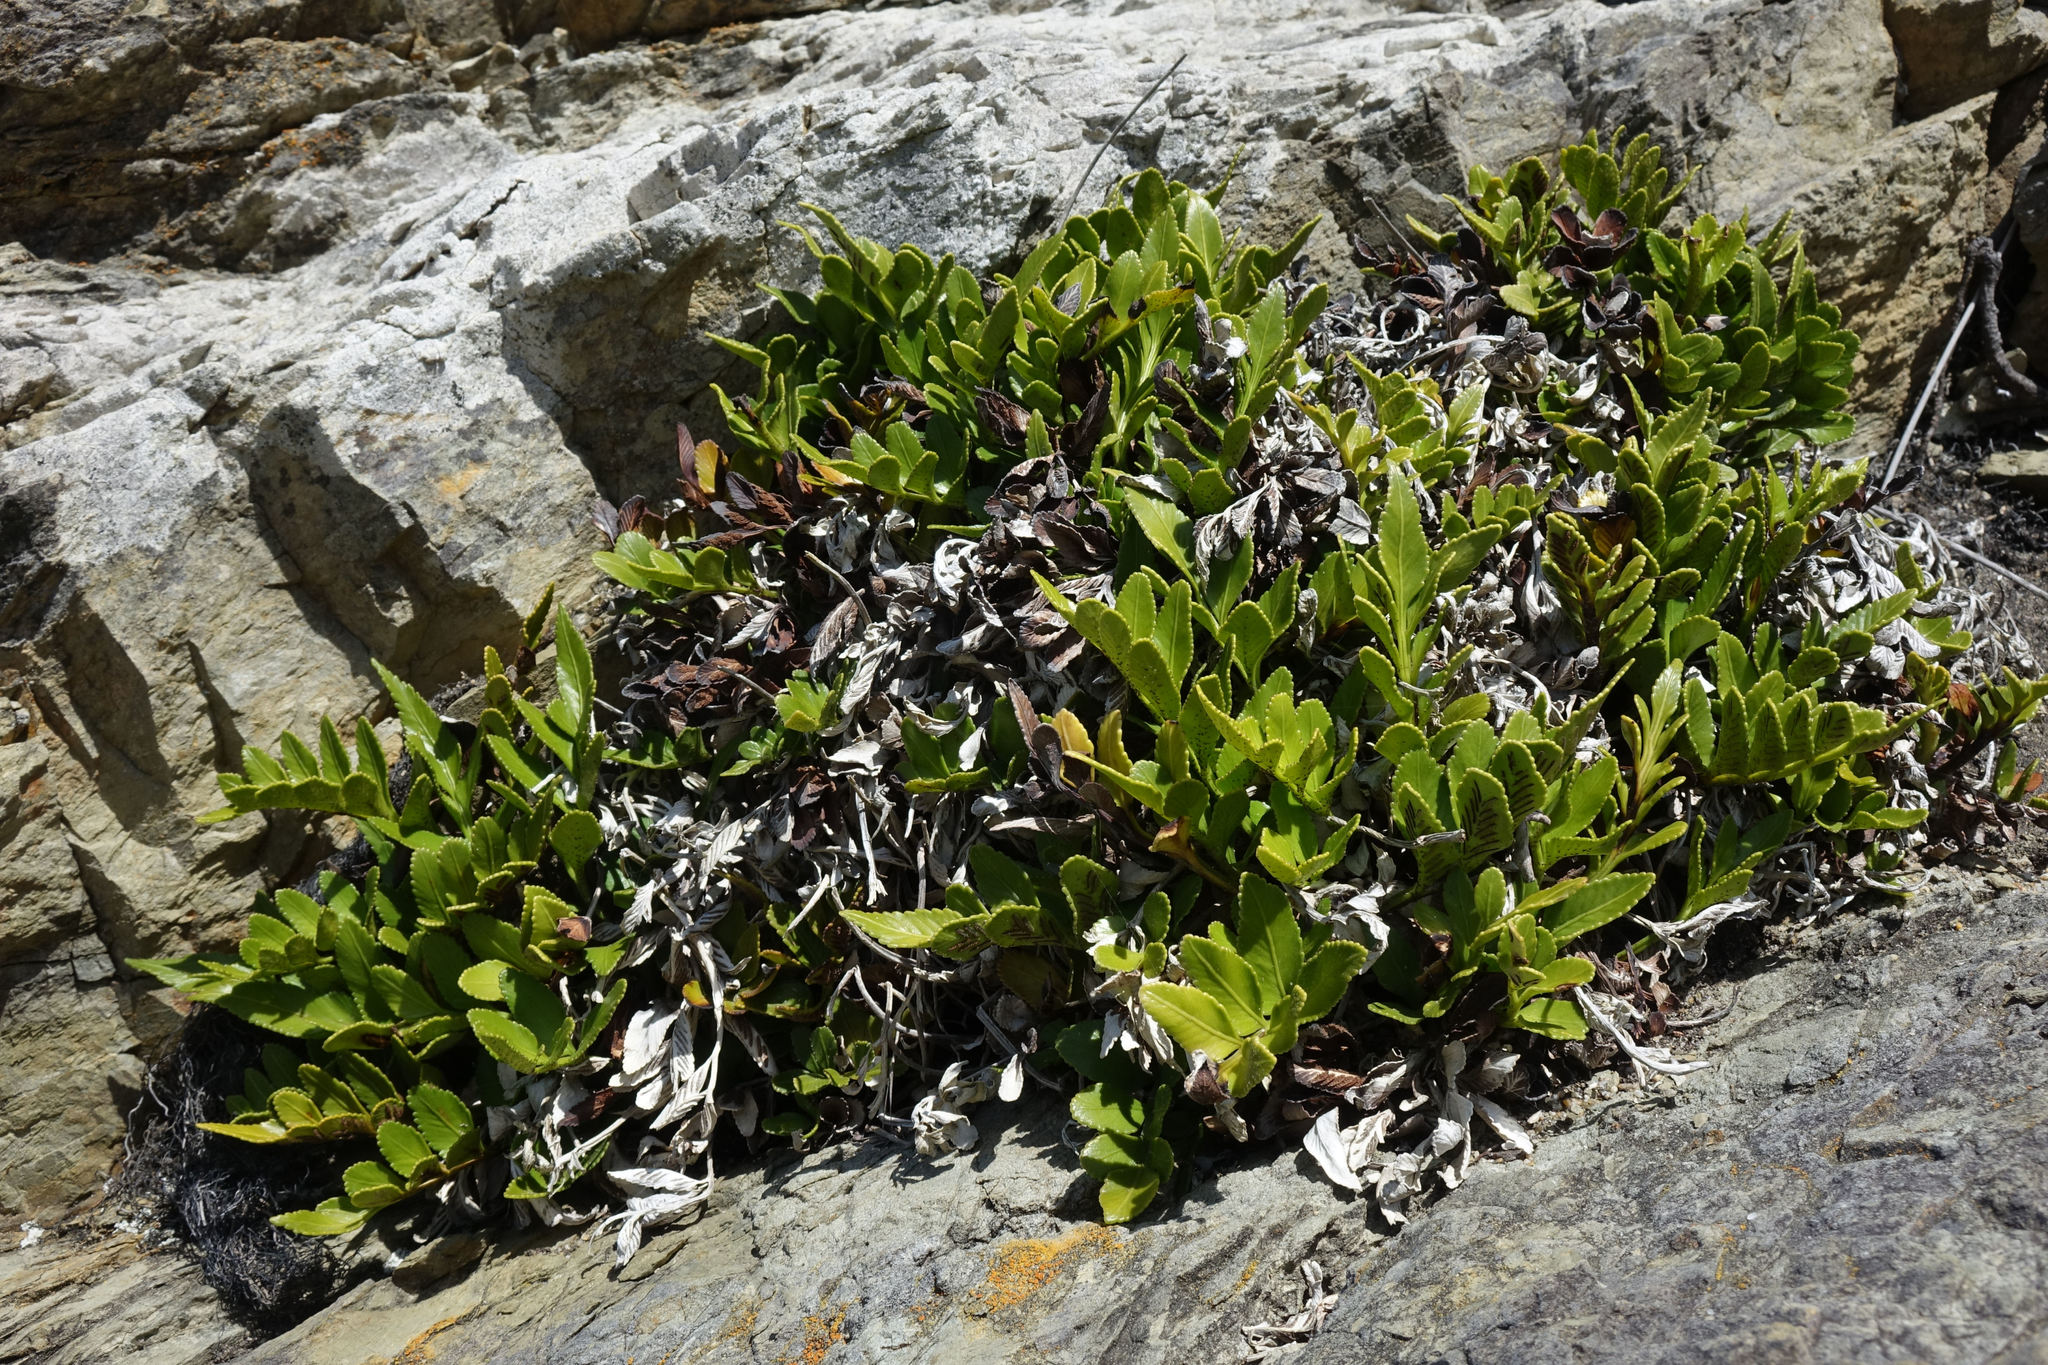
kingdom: Plantae
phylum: Tracheophyta
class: Polypodiopsida
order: Polypodiales
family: Aspleniaceae
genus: Asplenium
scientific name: Asplenium obtusatum
